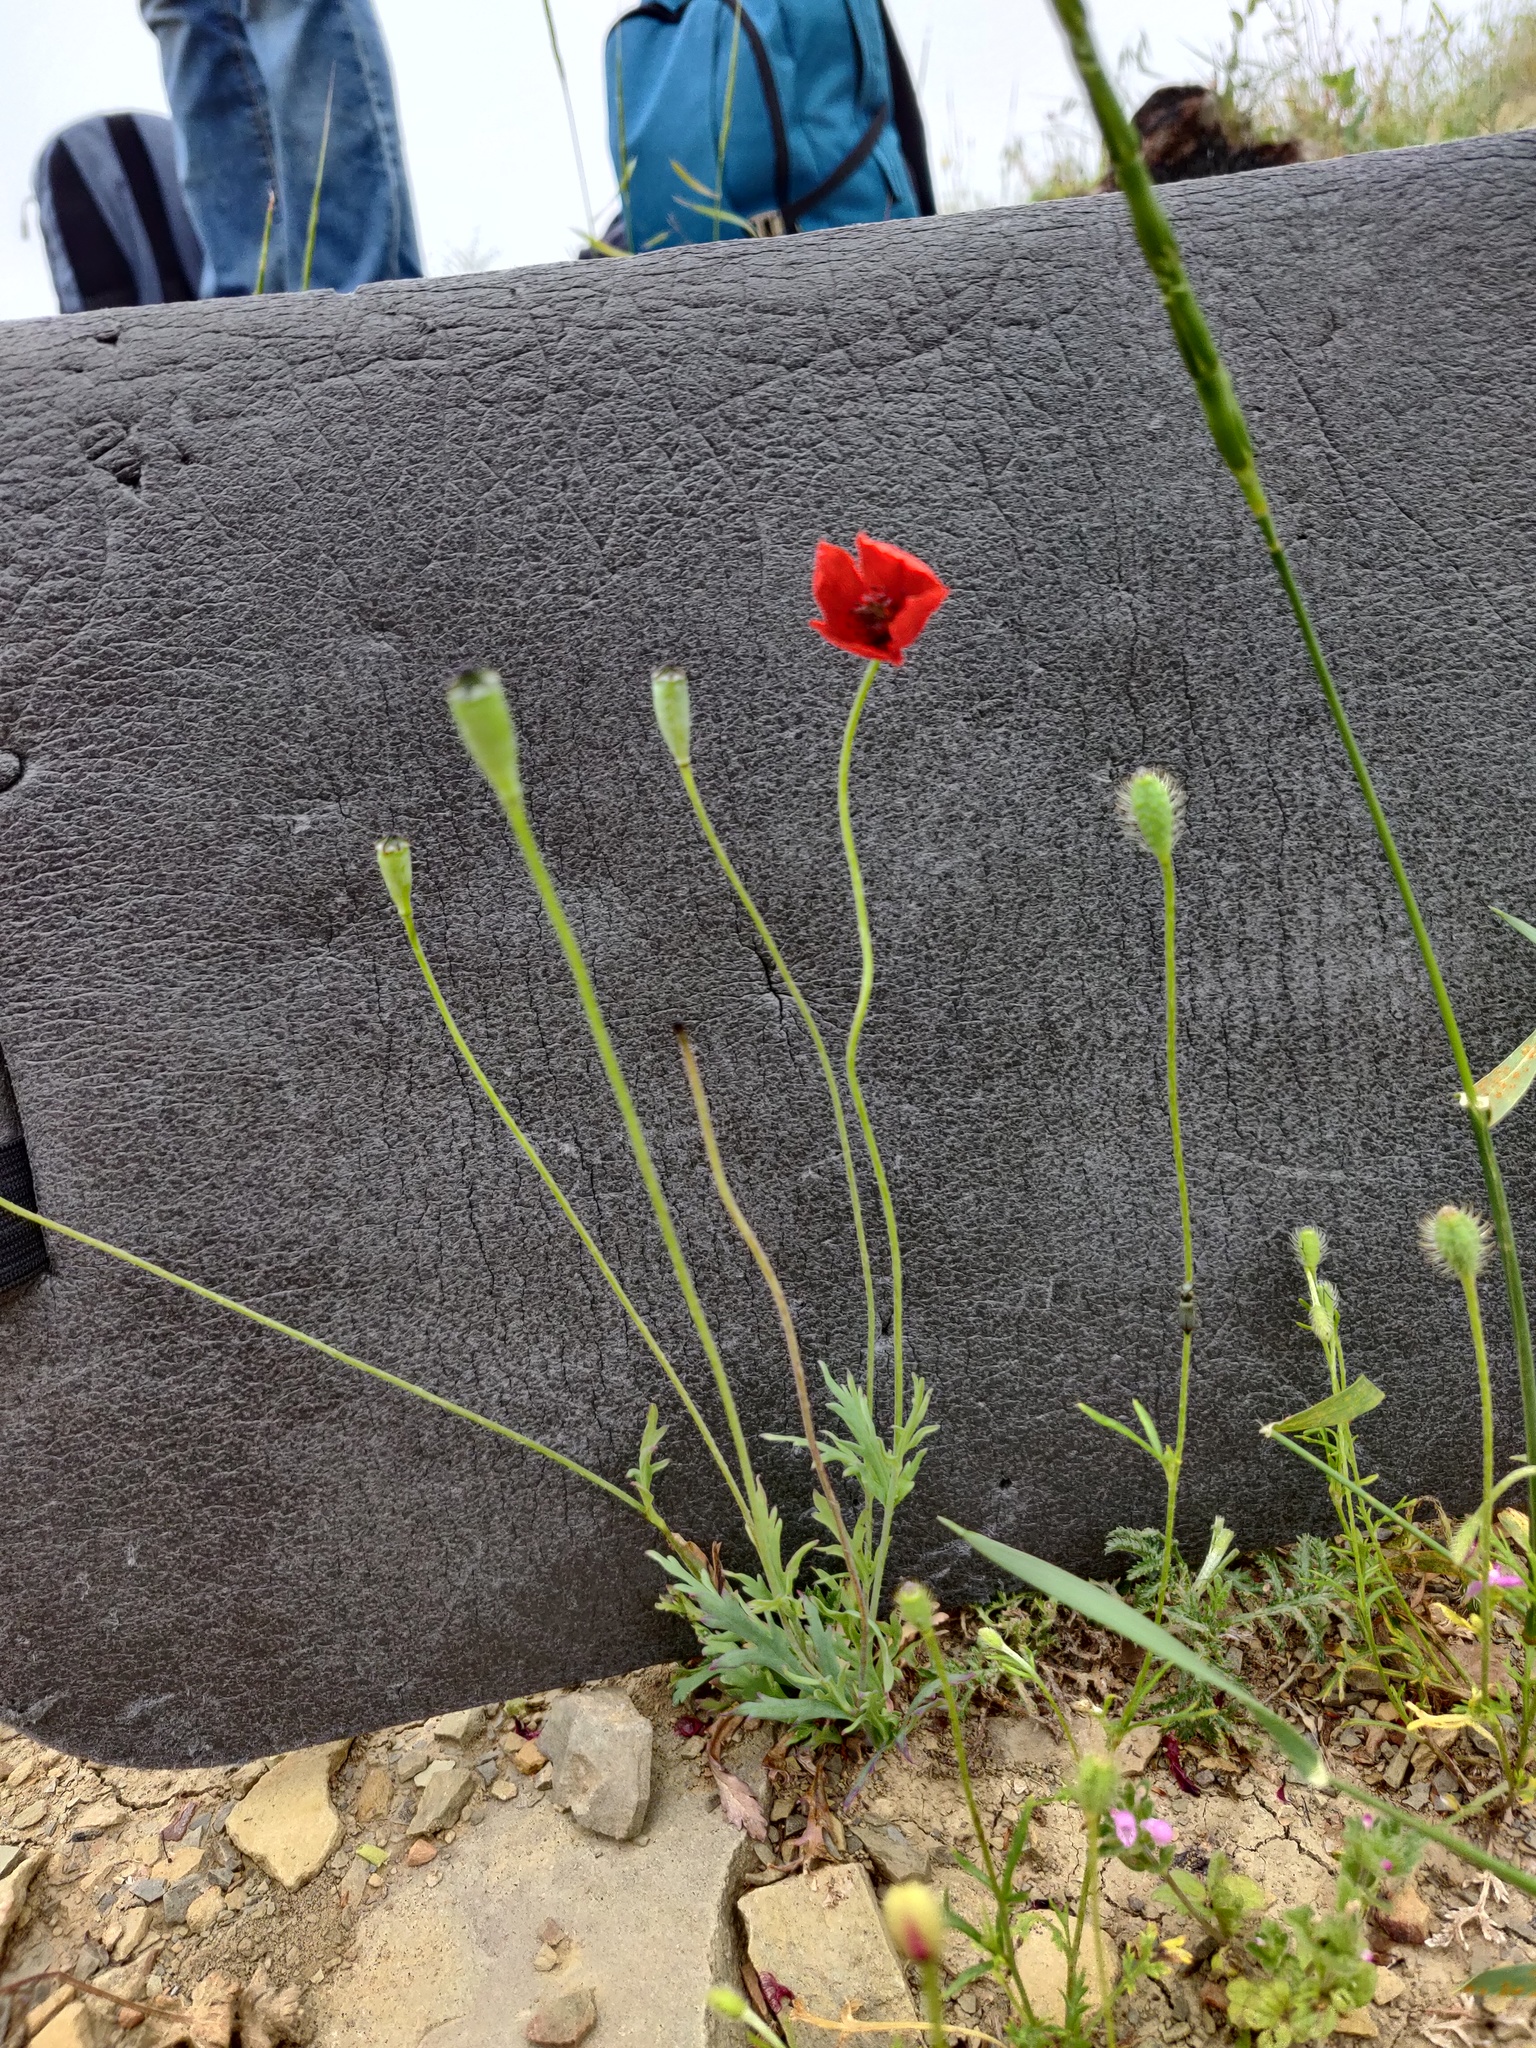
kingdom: Plantae
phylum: Tracheophyta
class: Magnoliopsida
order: Ranunculales
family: Papaveraceae
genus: Papaver
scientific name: Papaver dubium
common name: Long-headed poppy
